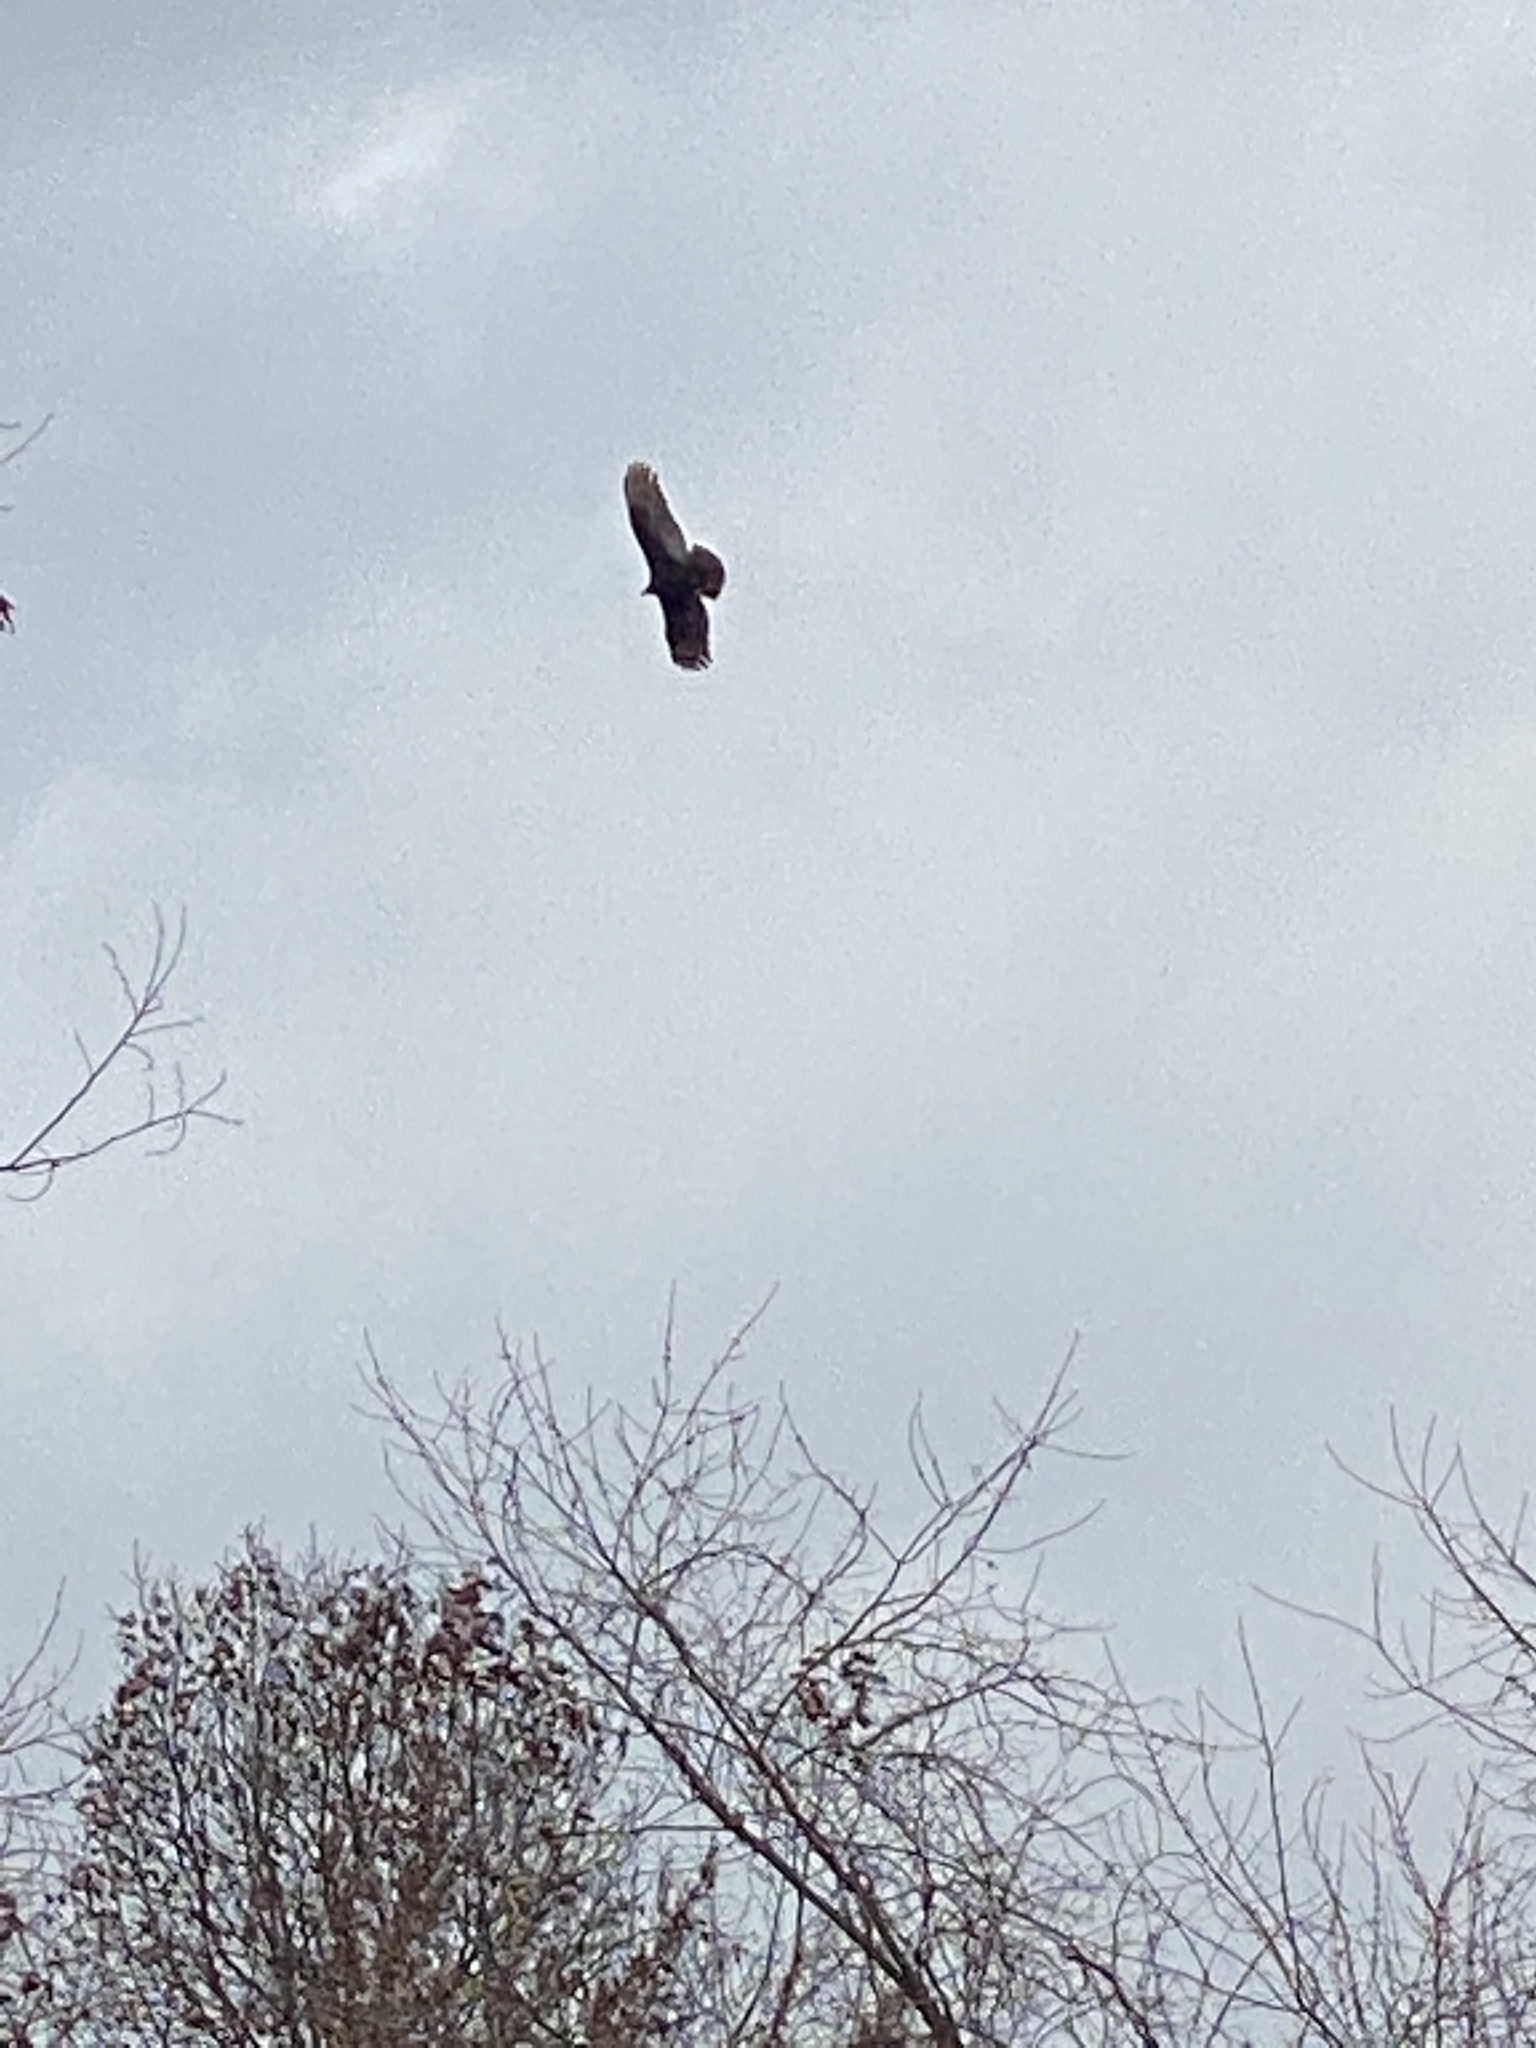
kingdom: Animalia
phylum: Chordata
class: Aves
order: Accipitriformes
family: Cathartidae
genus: Cathartes
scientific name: Cathartes aura
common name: Turkey vulture
